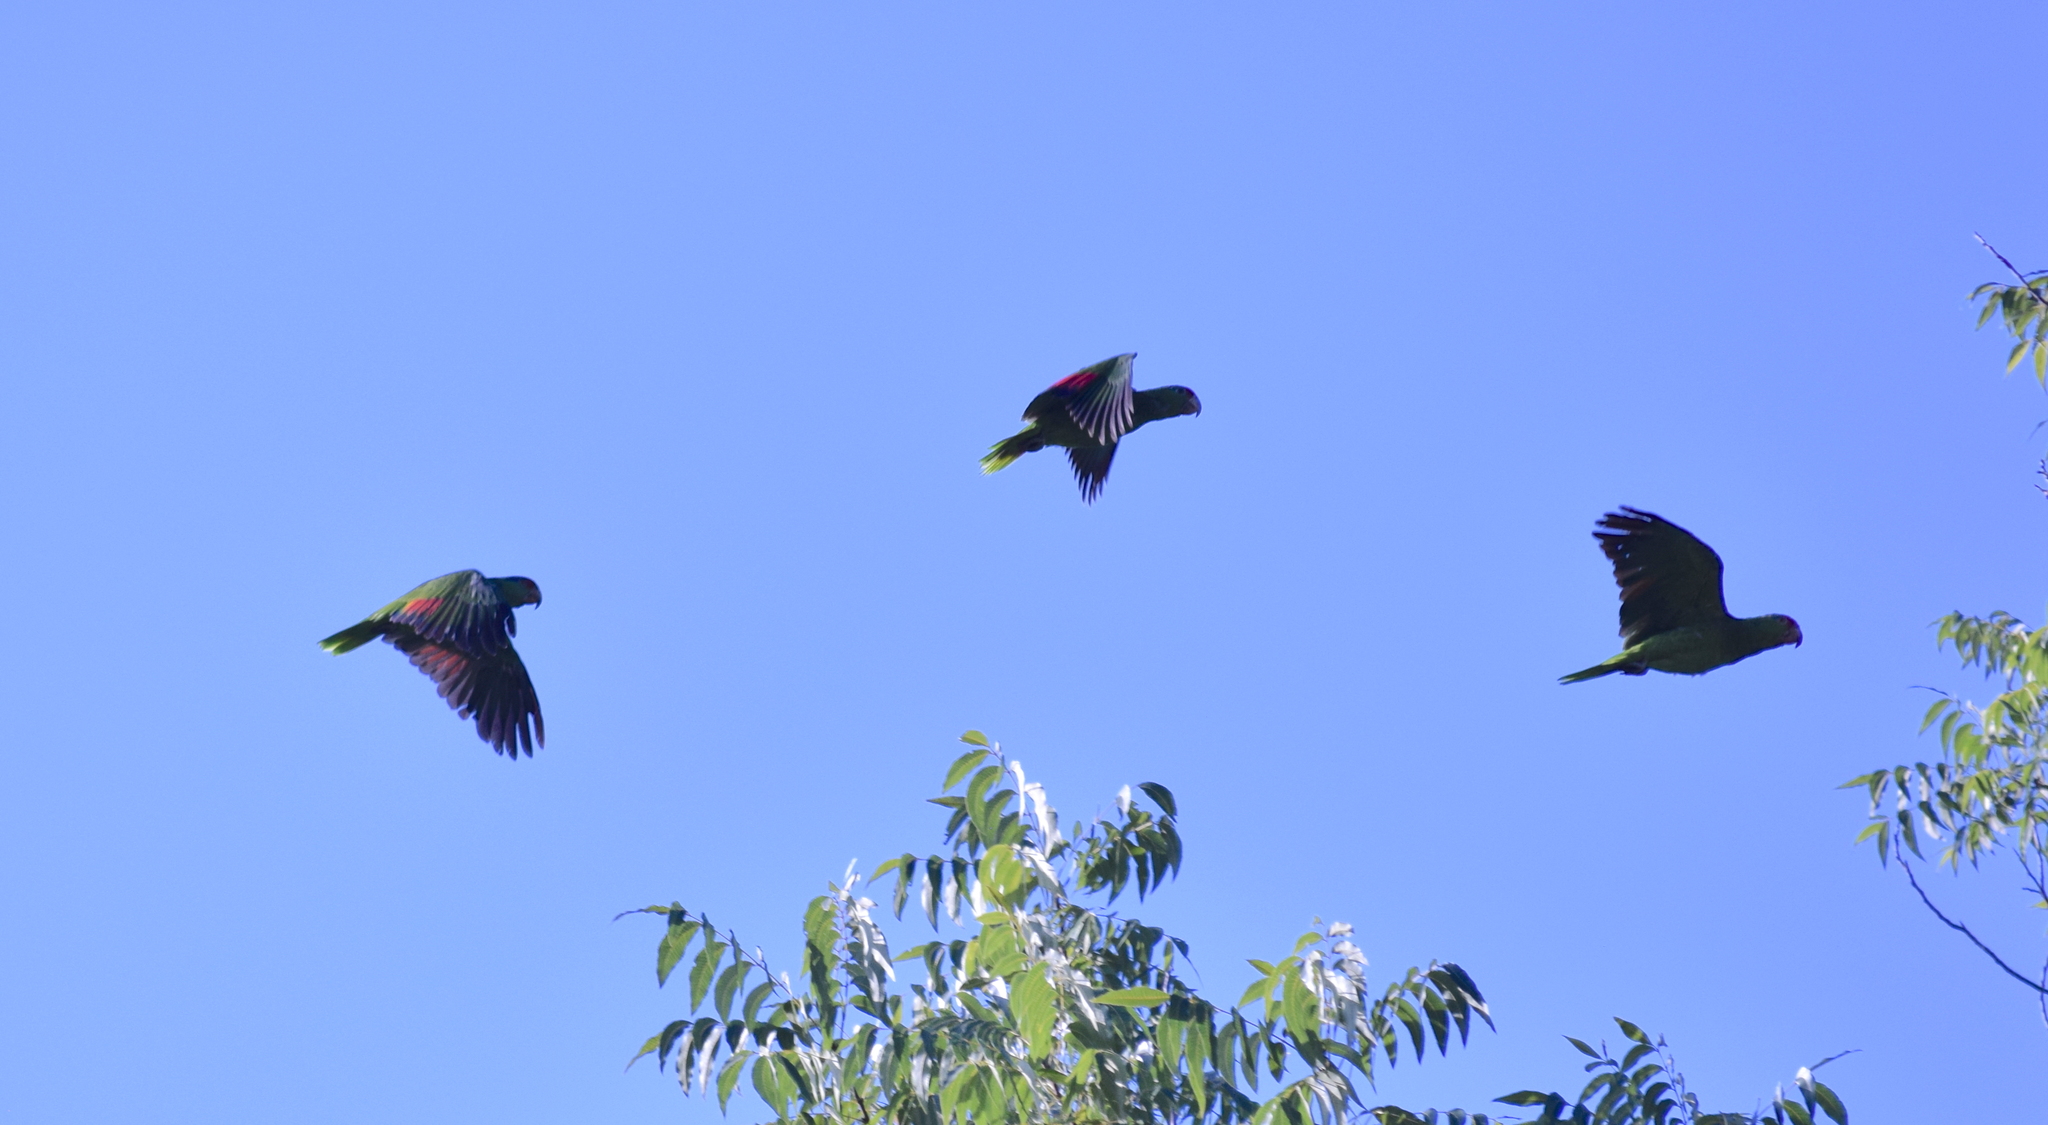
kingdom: Animalia
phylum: Chordata
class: Aves
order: Psittaciformes
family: Psittacidae
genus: Amazona
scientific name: Amazona viridigenalis
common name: Red-crowned amazon
